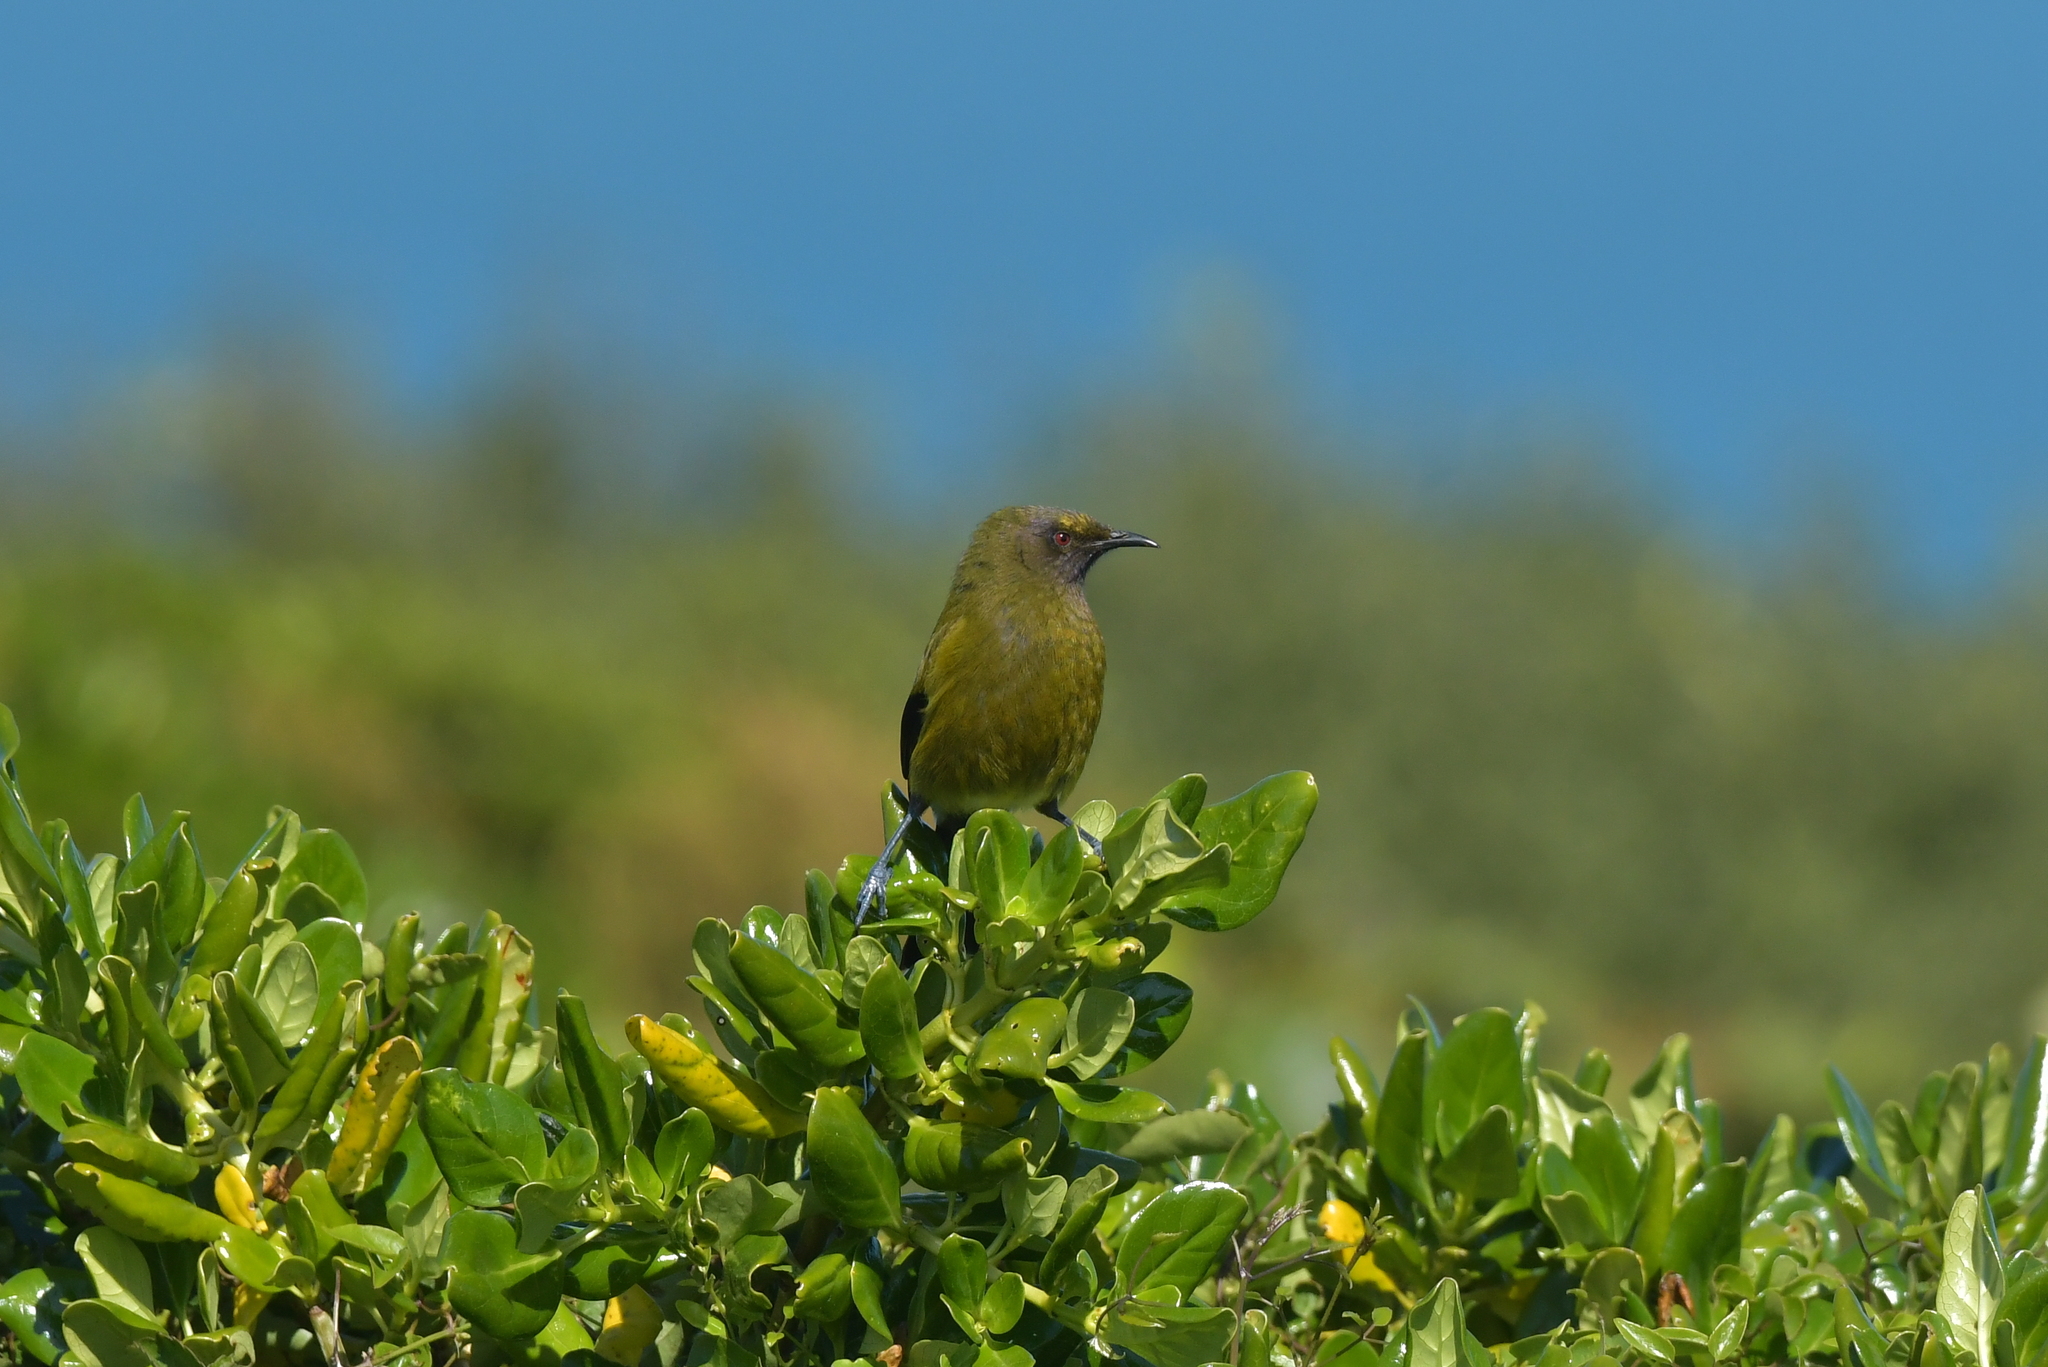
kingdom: Animalia
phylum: Chordata
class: Aves
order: Passeriformes
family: Meliphagidae
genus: Anthornis
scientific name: Anthornis melanura
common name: New zealand bellbird
